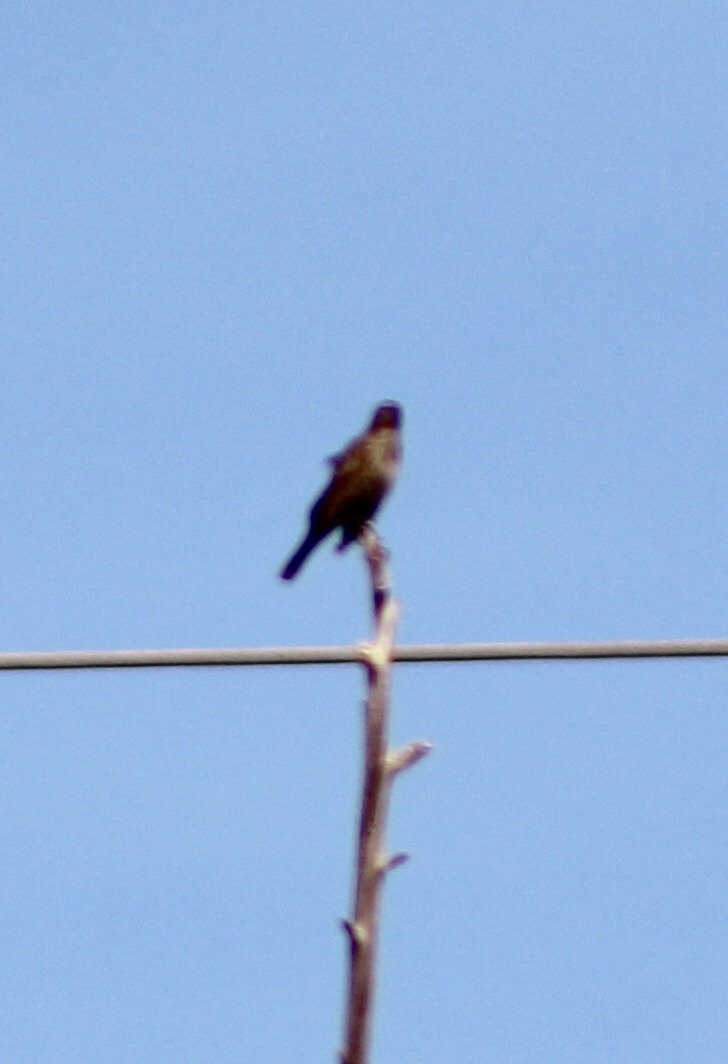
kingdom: Animalia
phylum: Chordata
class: Aves
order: Passeriformes
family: Icteridae
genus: Agelaius
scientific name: Agelaius phoeniceus
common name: Red-winged blackbird
